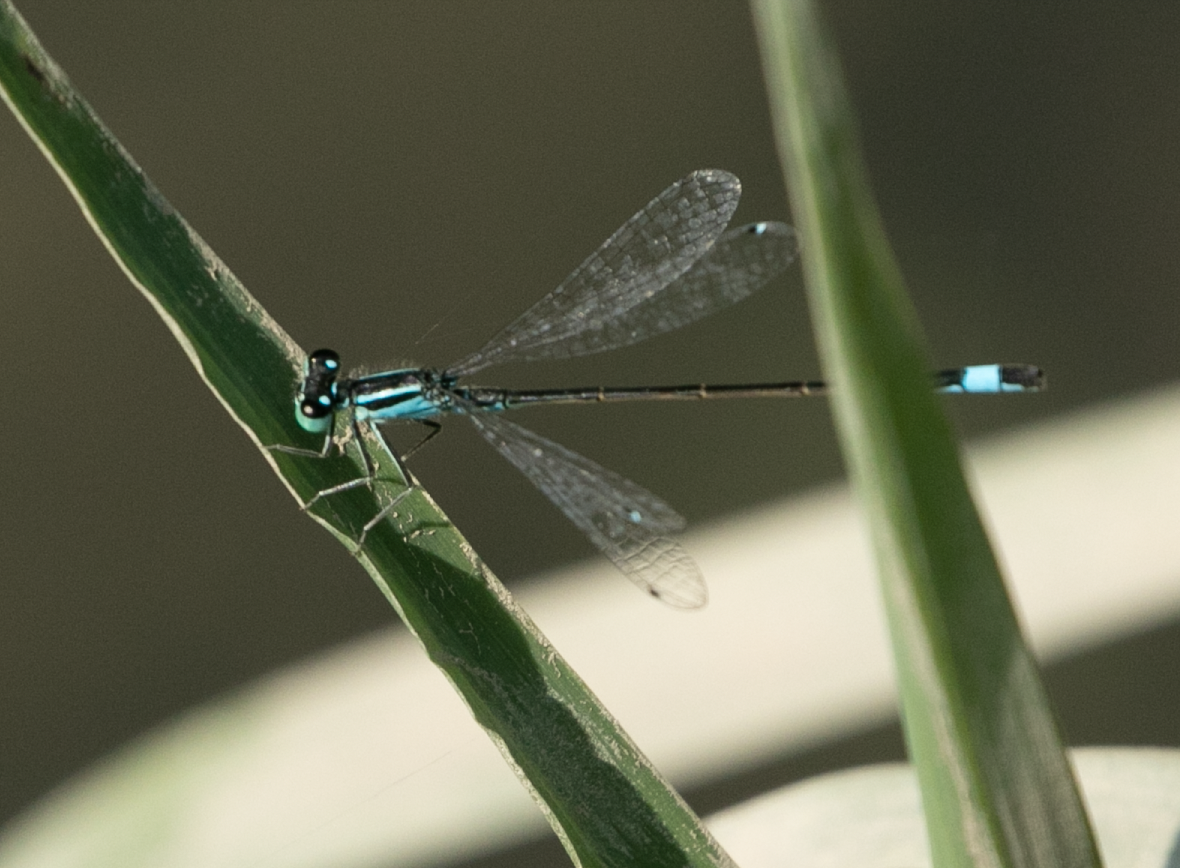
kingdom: Animalia
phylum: Arthropoda
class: Insecta
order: Odonata
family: Coenagrionidae
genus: Ischnura
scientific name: Ischnura elegans
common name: Blue-tailed damselfly
